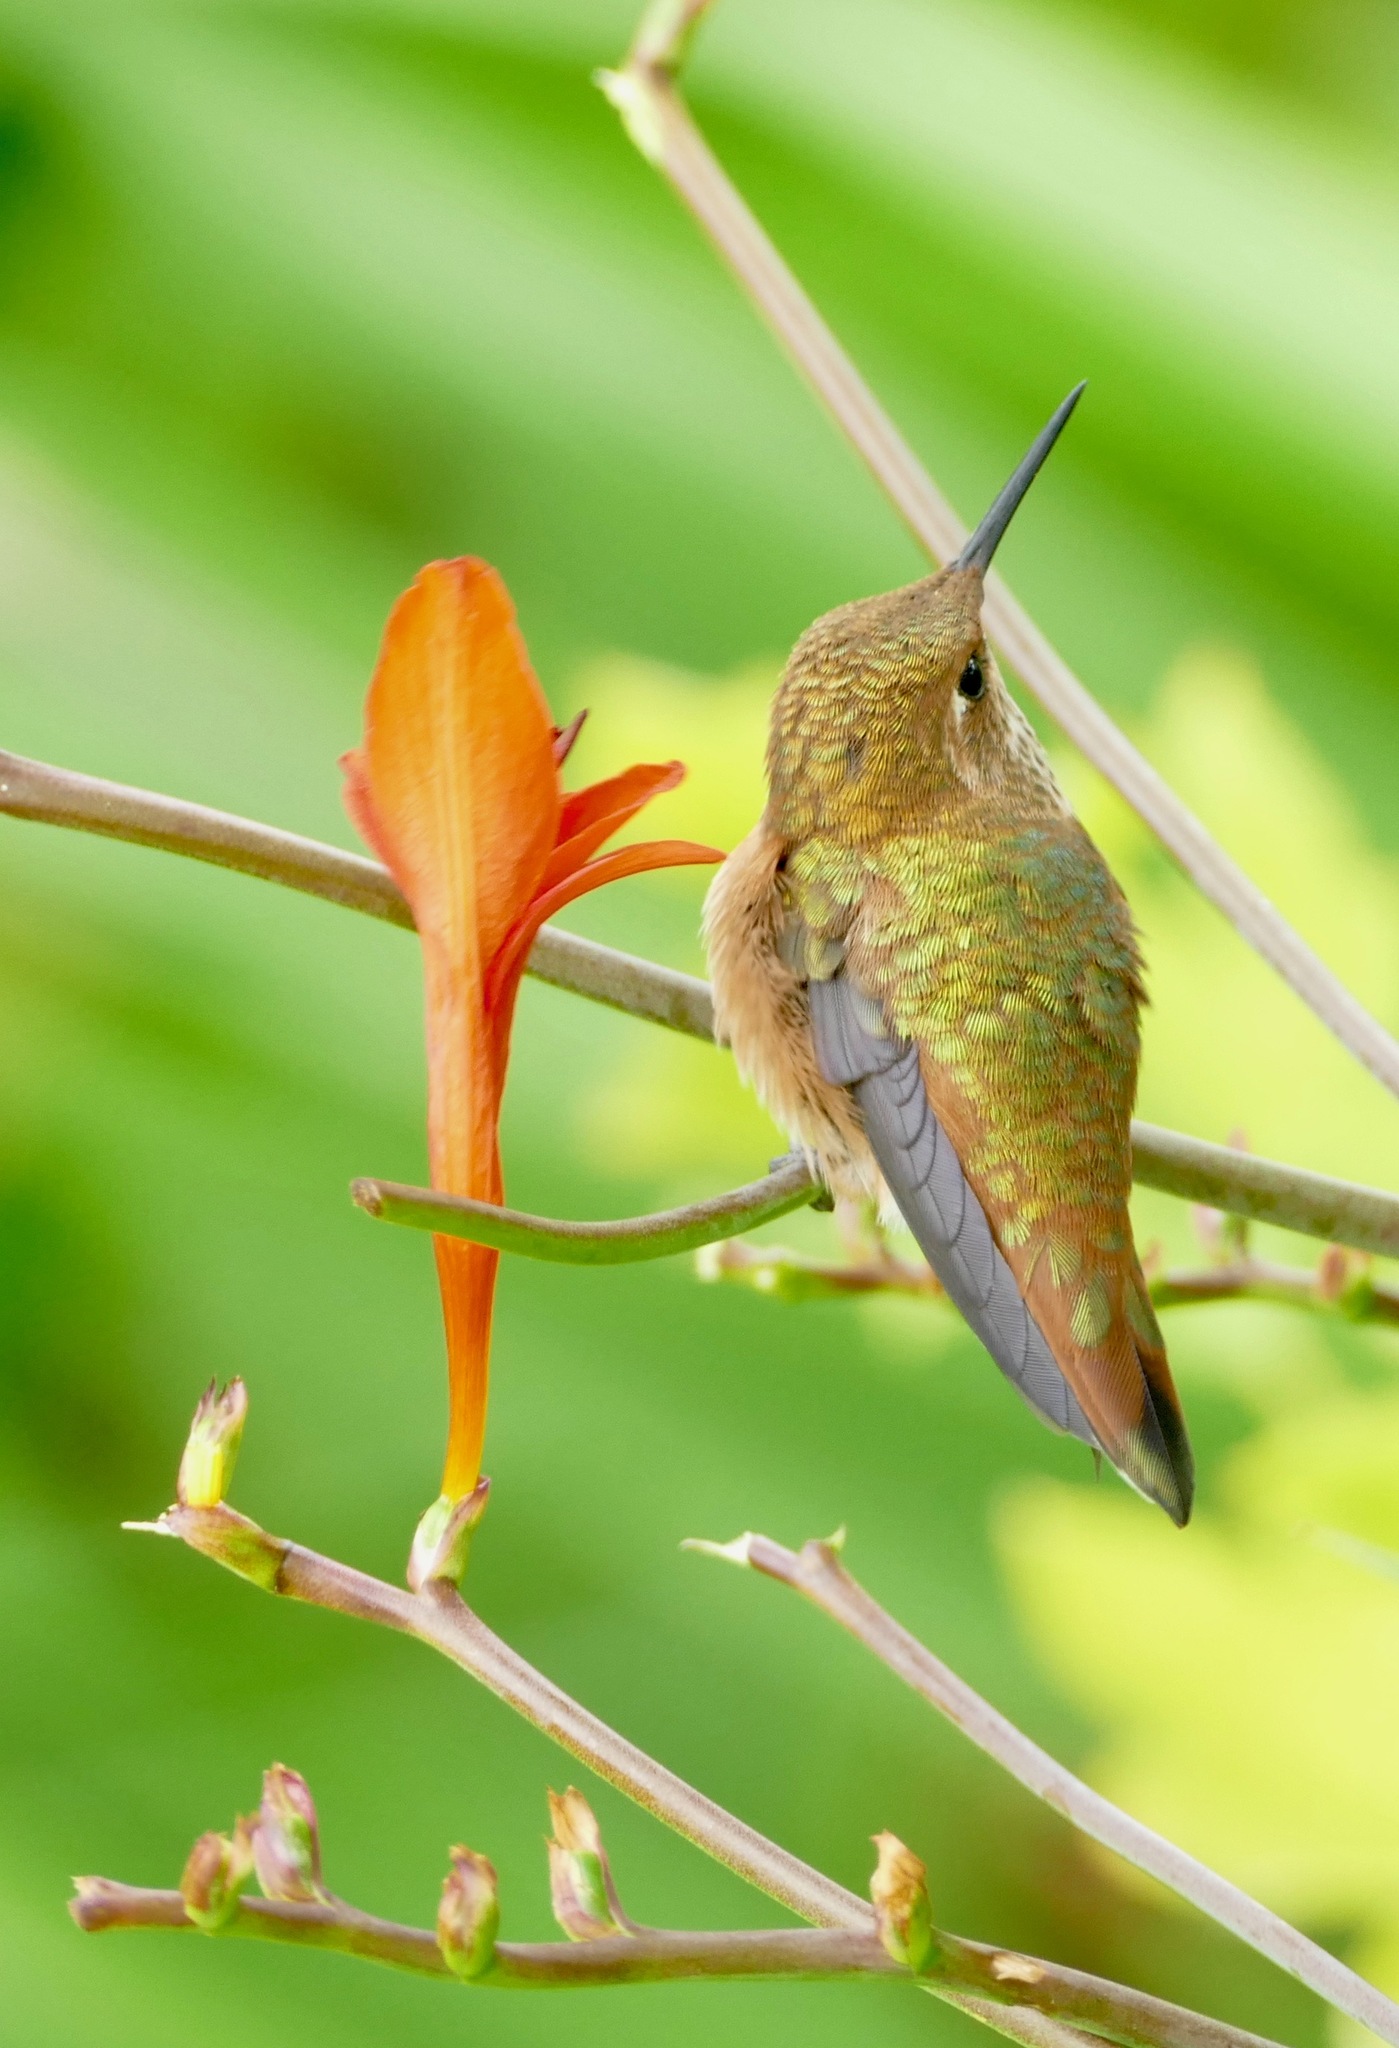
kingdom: Animalia
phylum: Chordata
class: Aves
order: Apodiformes
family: Trochilidae
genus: Selasphorus
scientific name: Selasphorus rufus
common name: Rufous hummingbird
